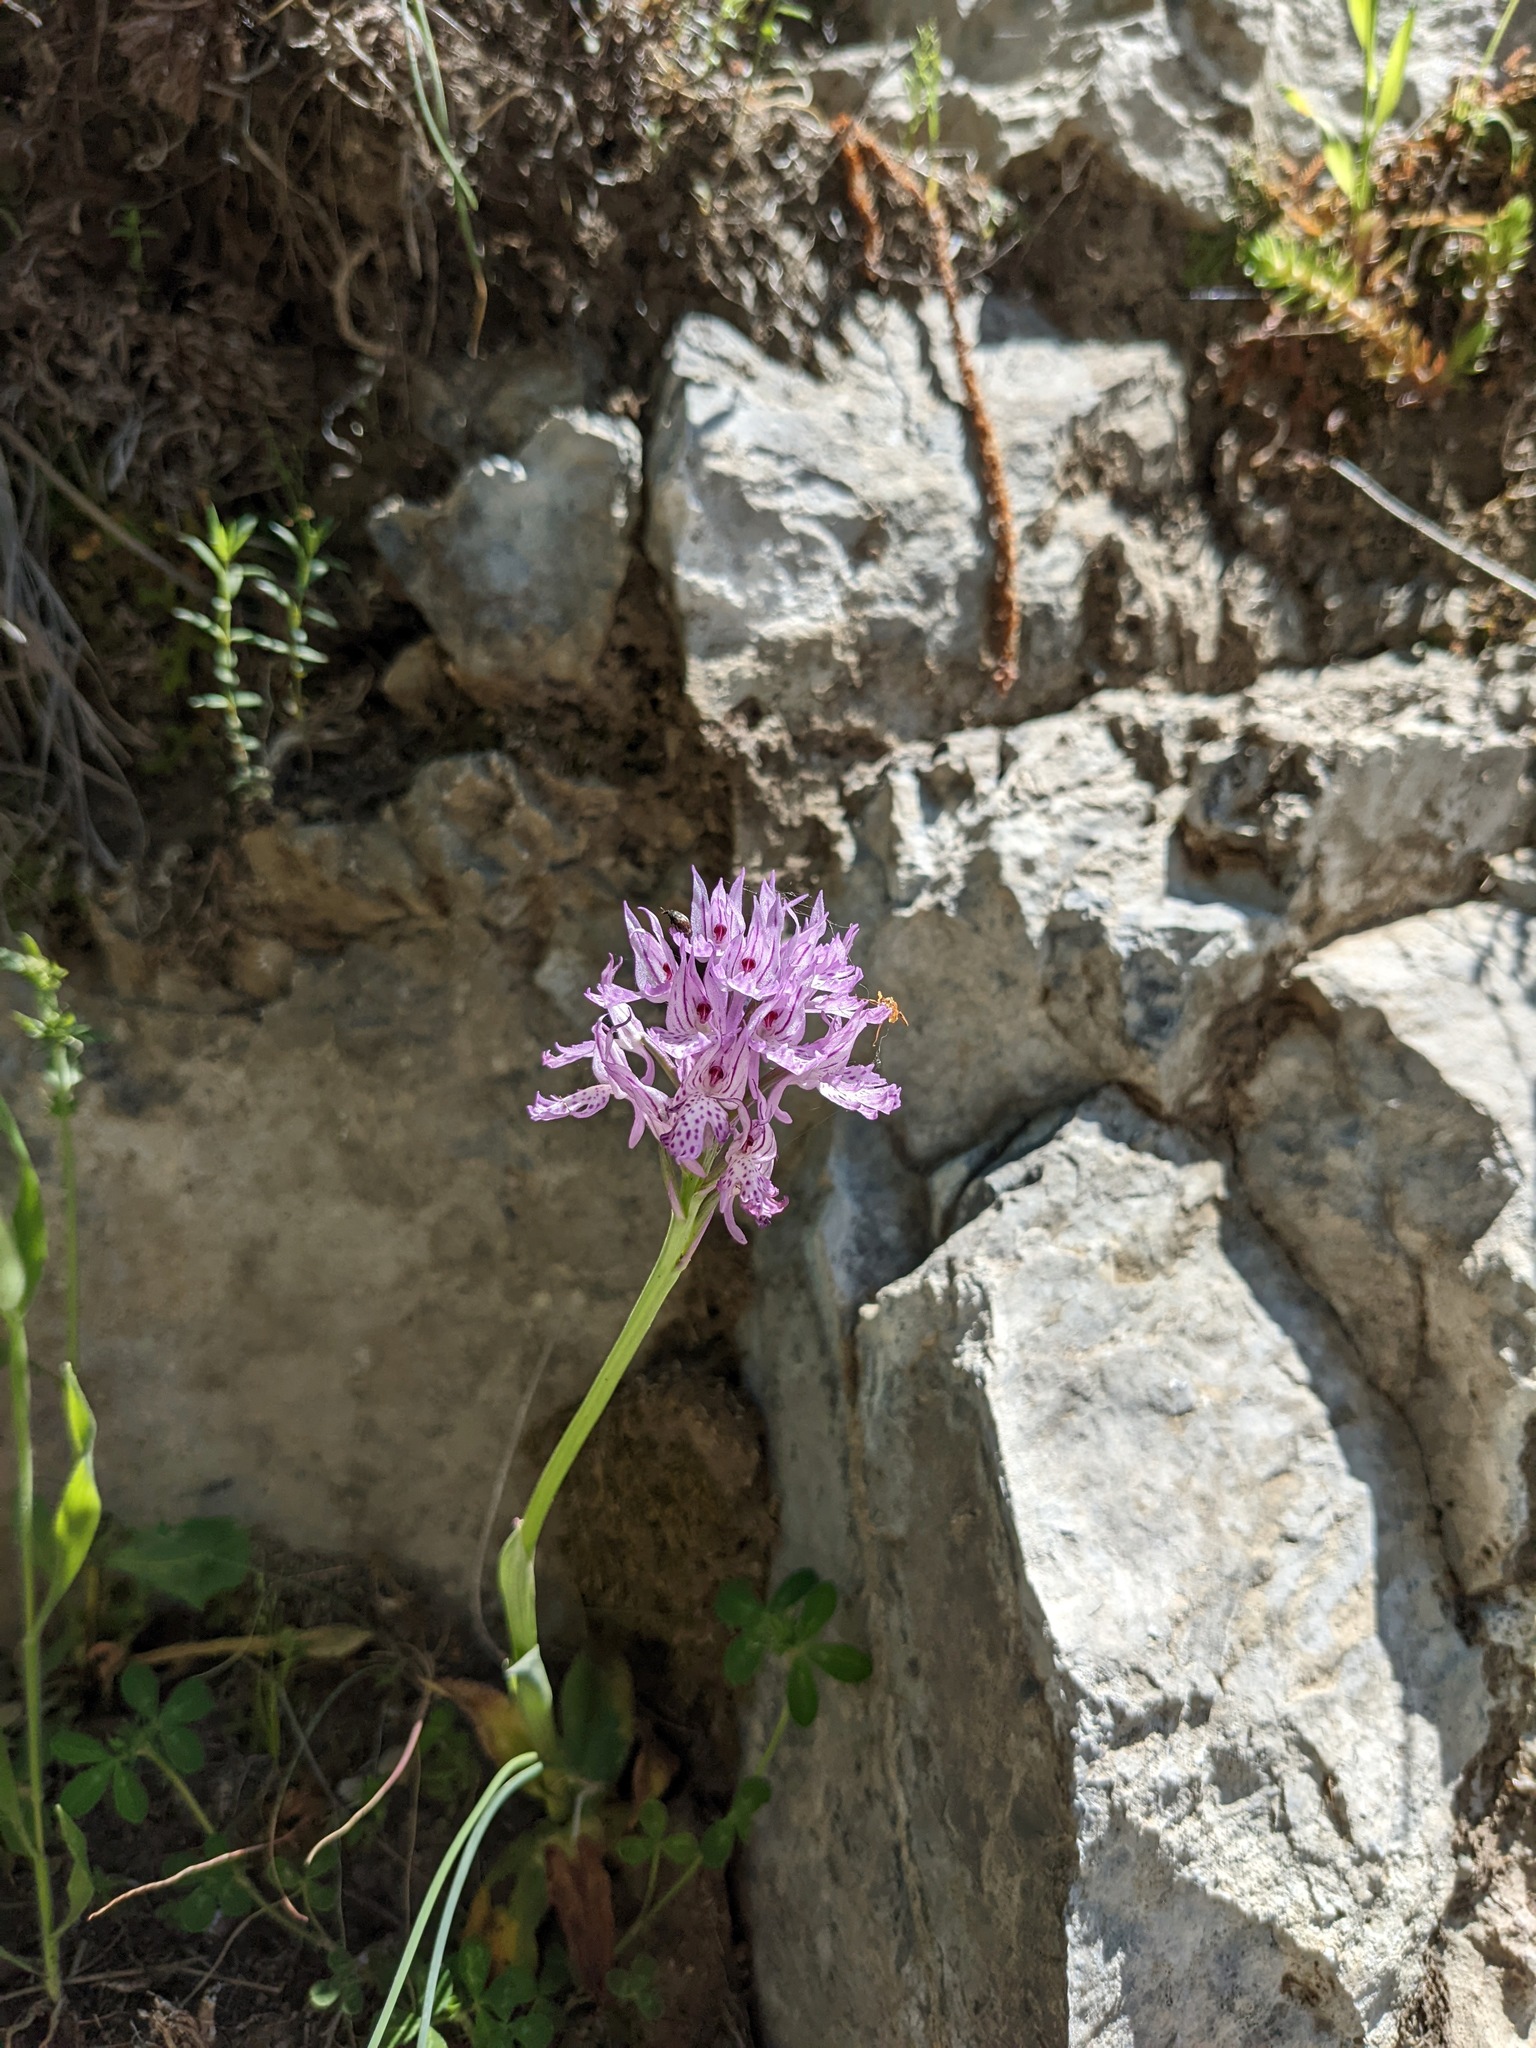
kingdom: Plantae
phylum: Tracheophyta
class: Liliopsida
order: Asparagales
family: Orchidaceae
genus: Neotinea
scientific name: Neotinea tridentata
